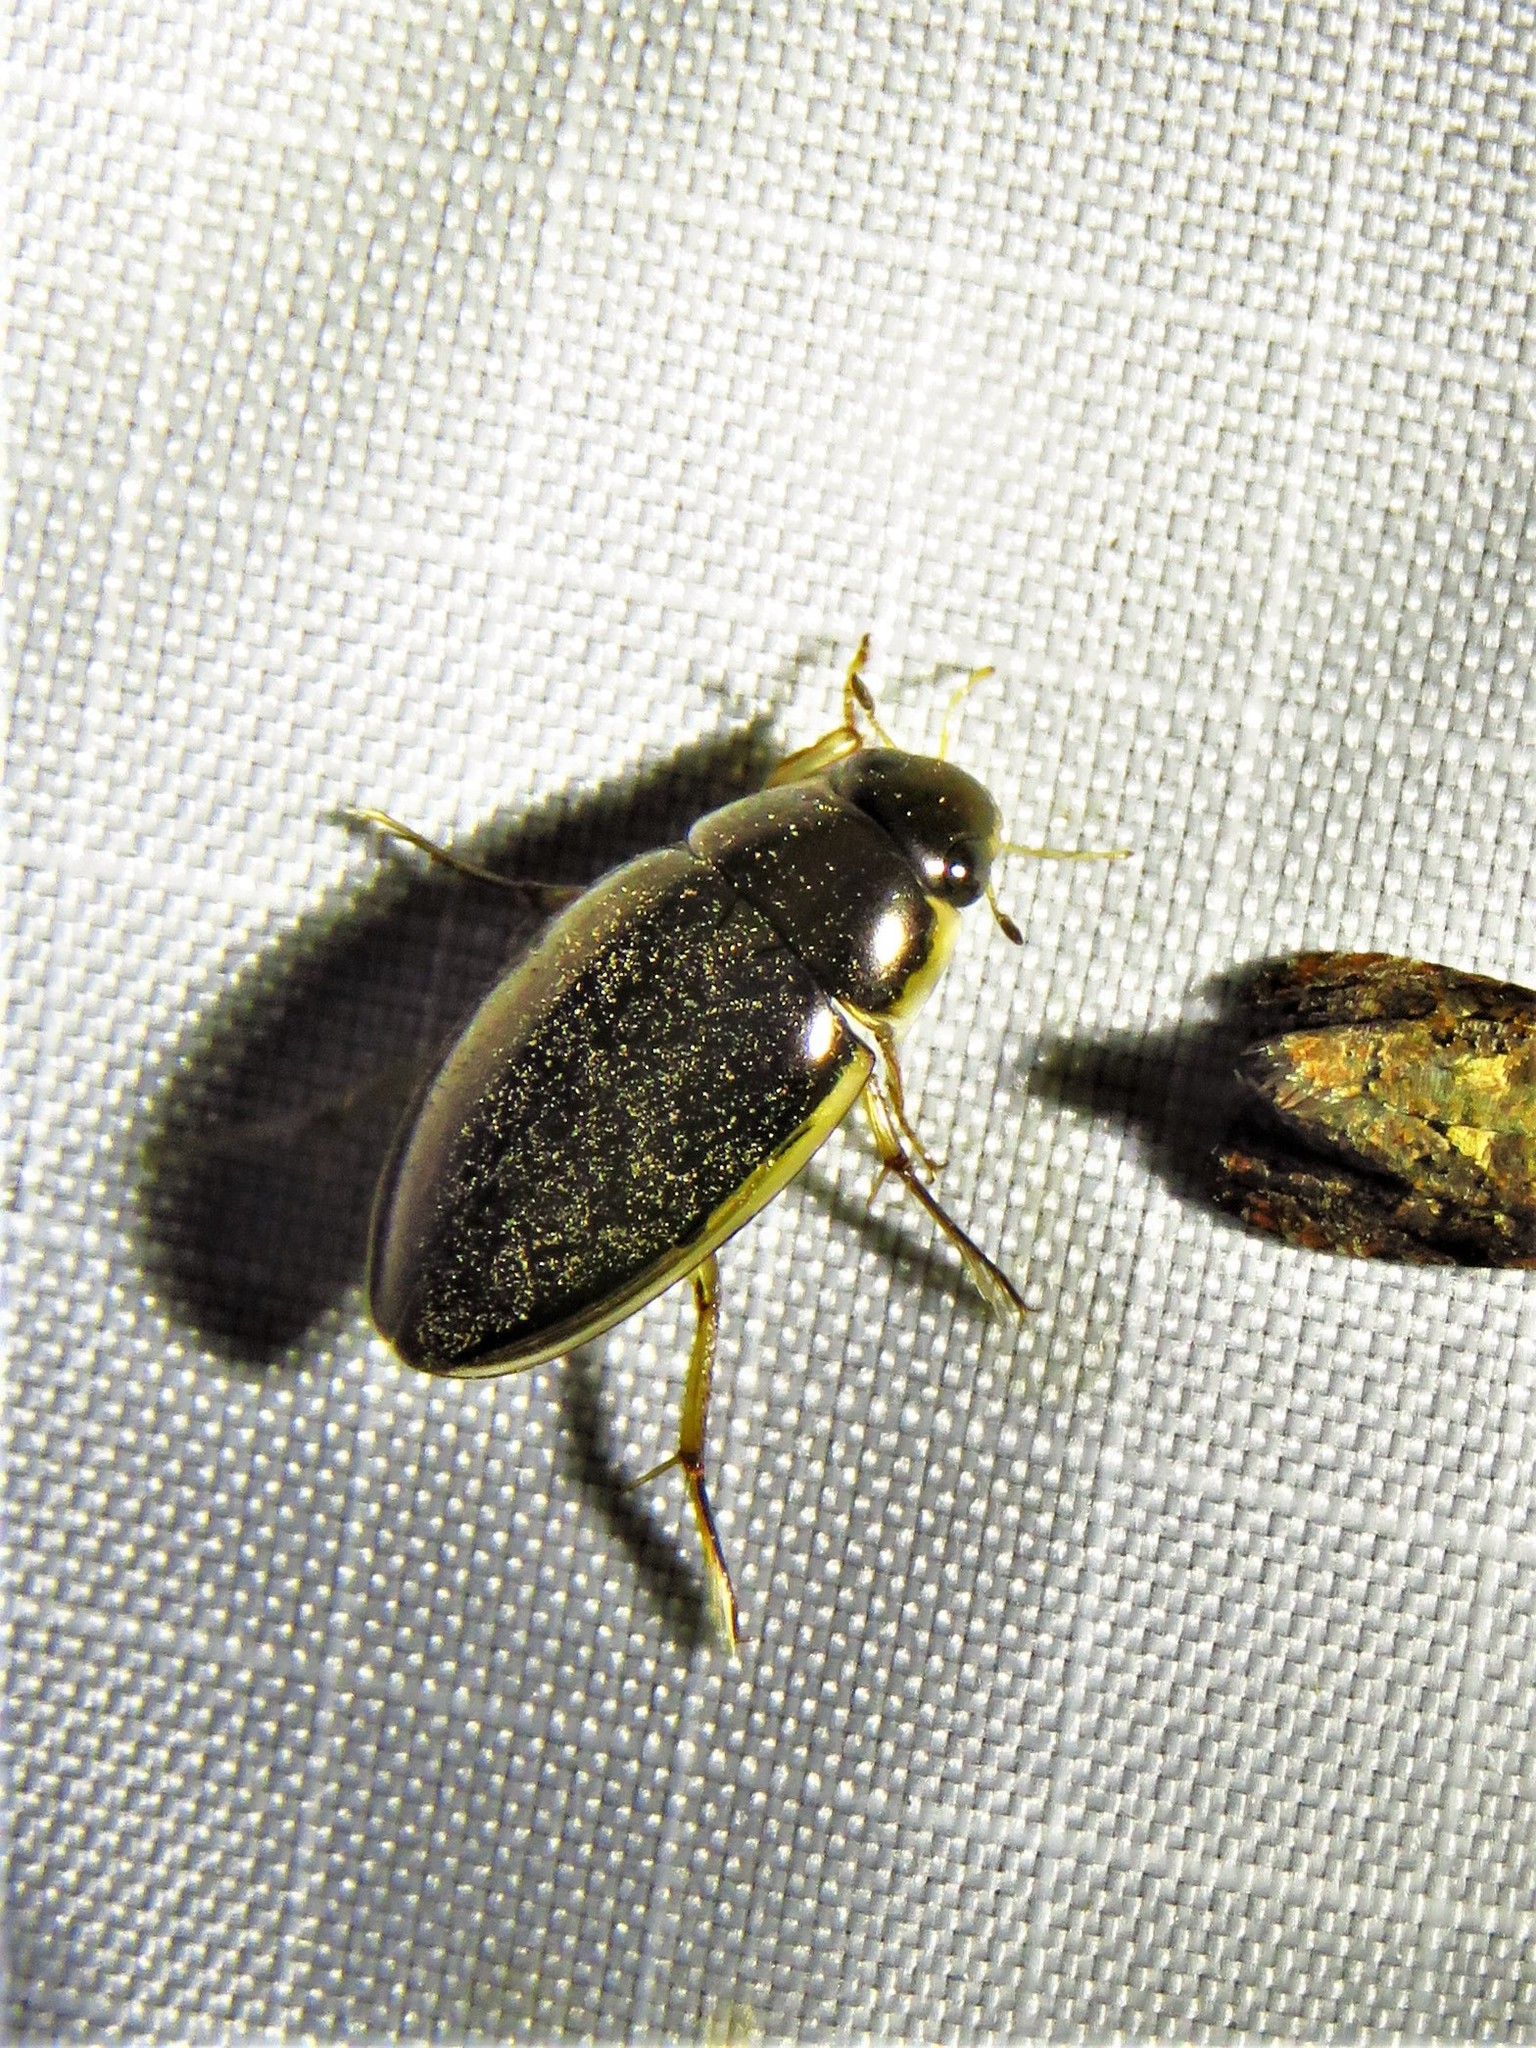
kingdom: Animalia
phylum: Arthropoda
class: Insecta
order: Coleoptera
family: Hydrophilidae
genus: Tropisternus
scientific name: Tropisternus lateralis
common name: Lateral-banded water scavenger beetle
